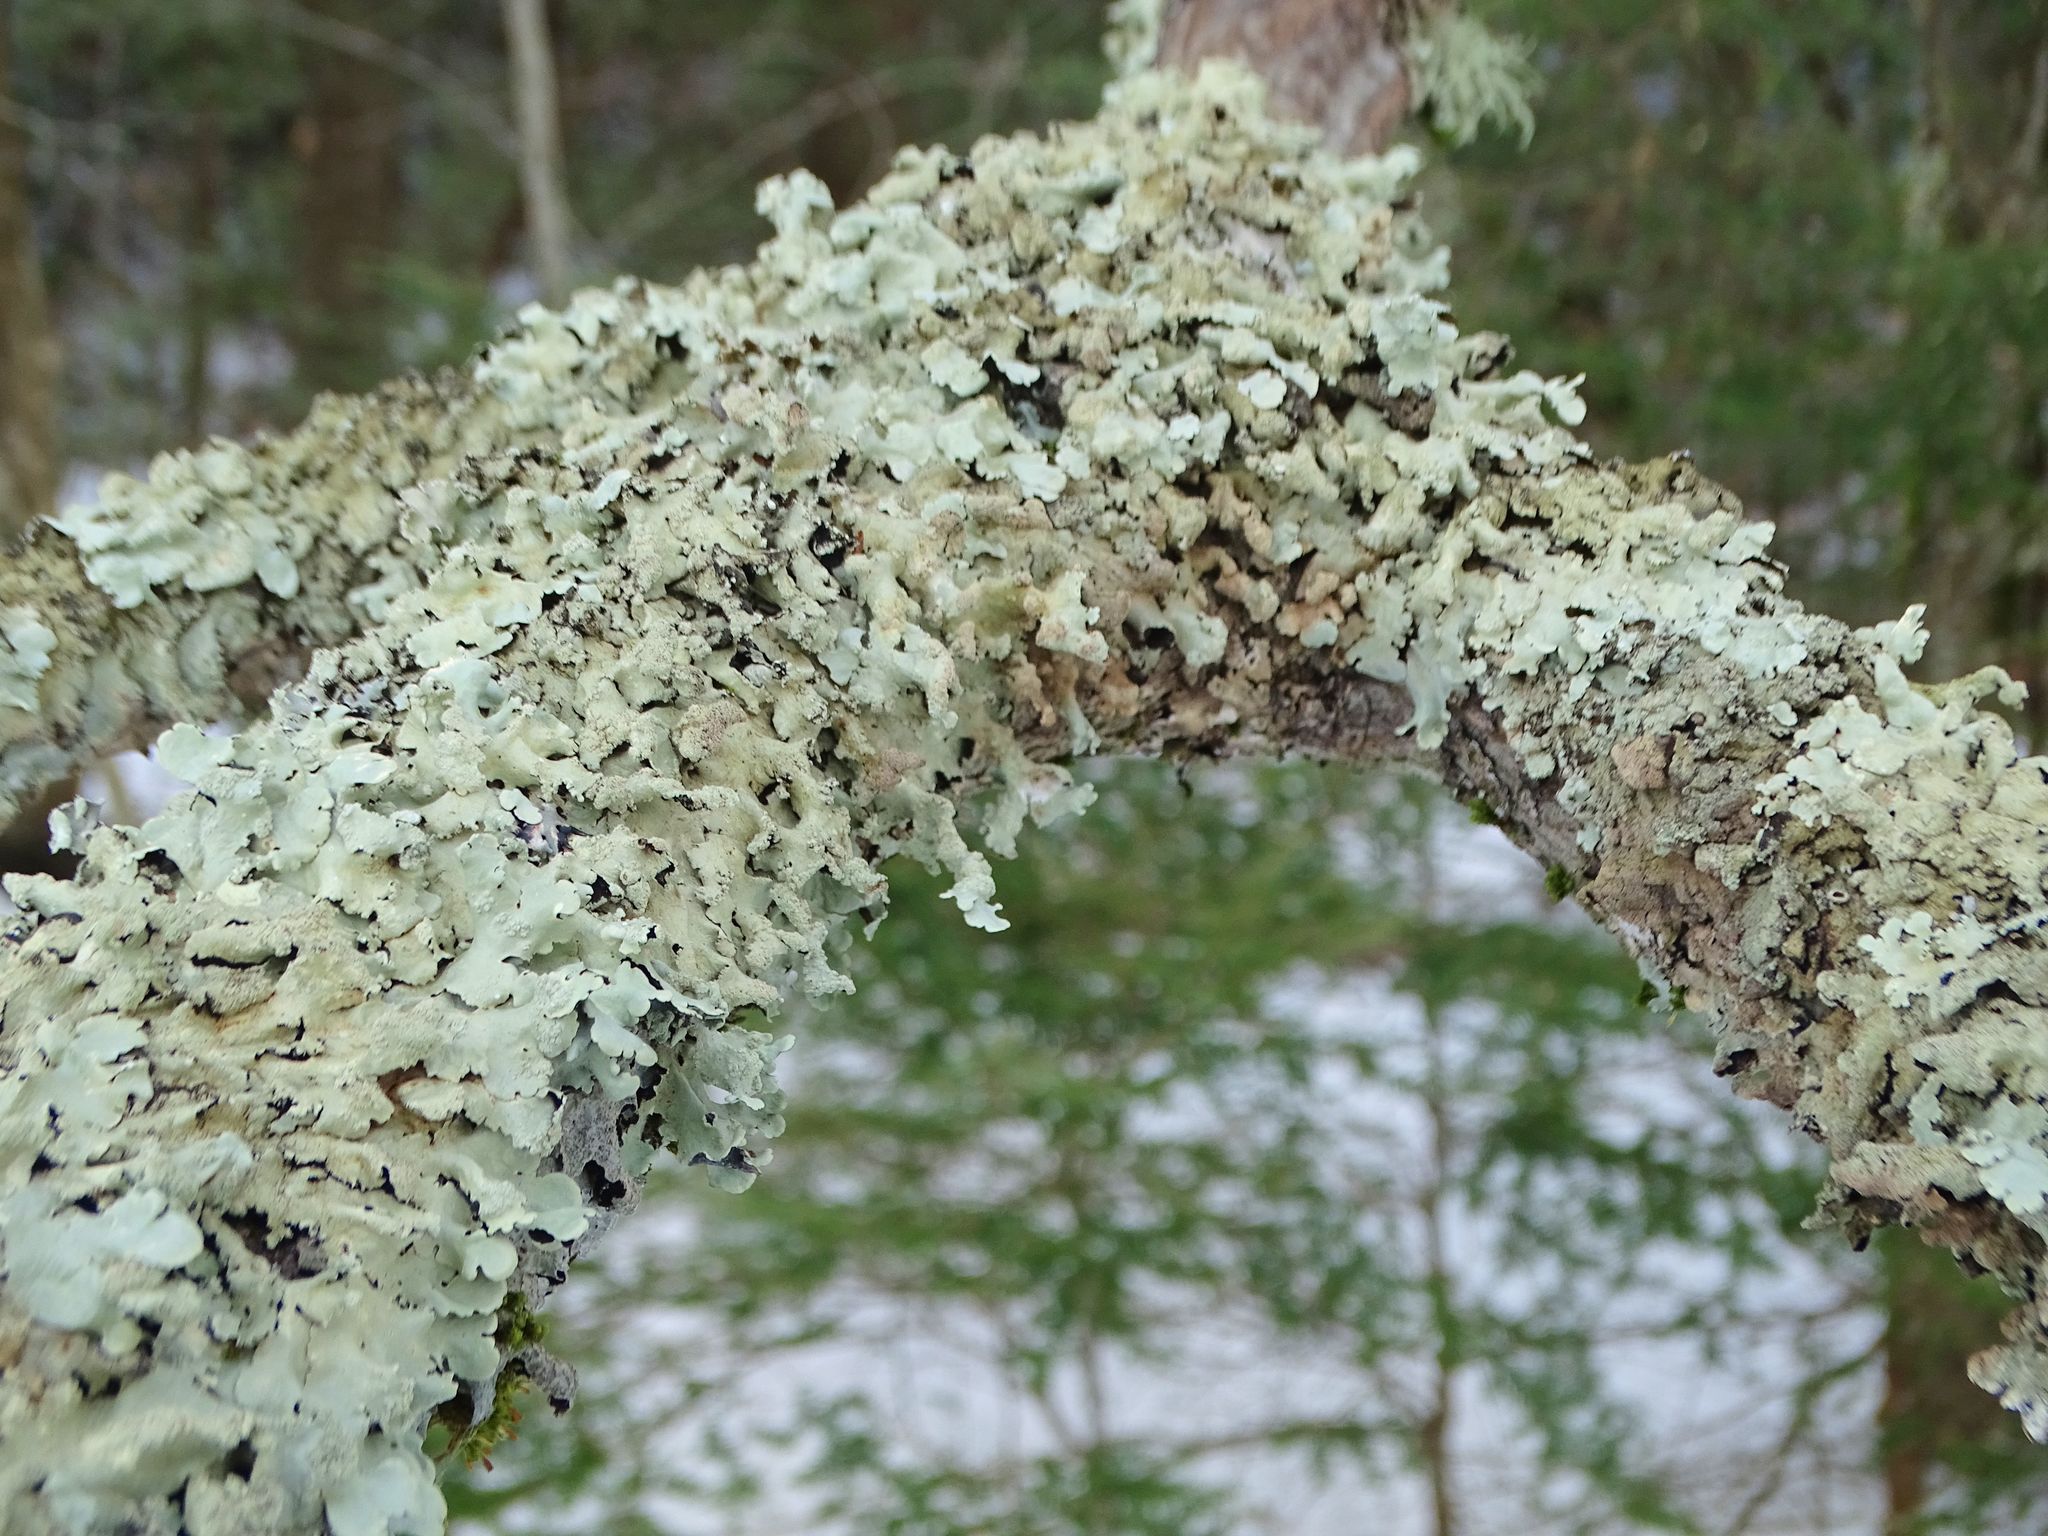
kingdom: Fungi
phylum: Ascomycota
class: Lecanoromycetes
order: Lecanorales
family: Parmeliaceae
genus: Flavoparmelia
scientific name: Flavoparmelia caperata
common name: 40-mile per hour lichen
